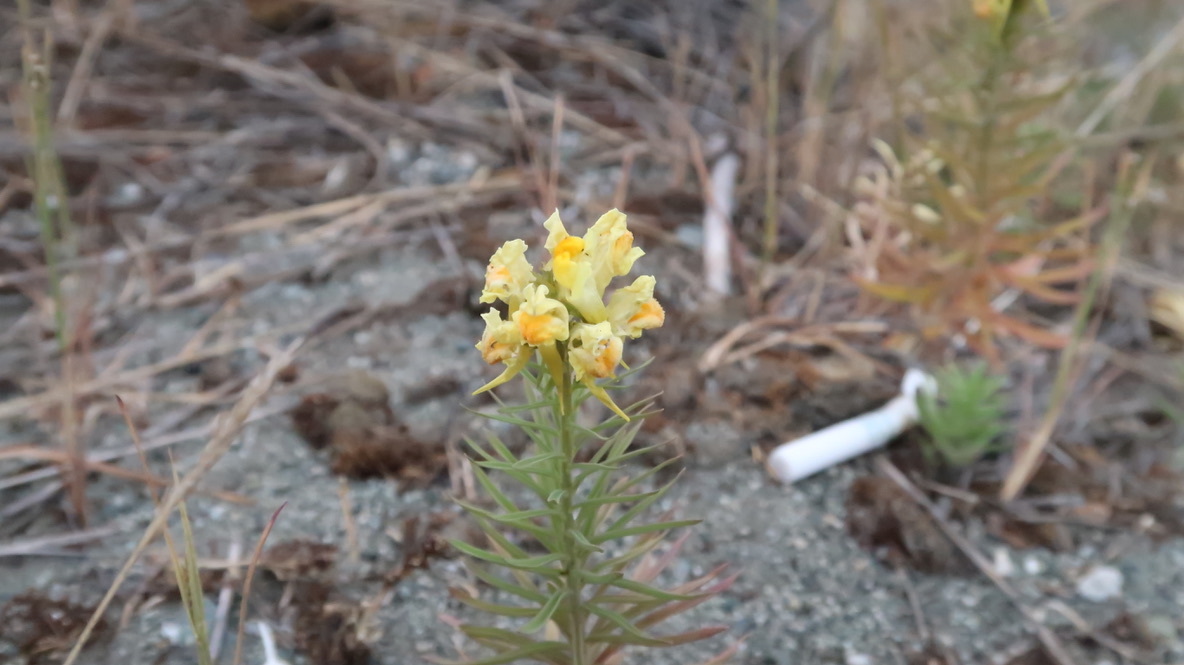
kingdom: Plantae
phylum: Tracheophyta
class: Magnoliopsida
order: Lamiales
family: Plantaginaceae
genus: Linaria
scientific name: Linaria vulgaris
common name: Butter and eggs
